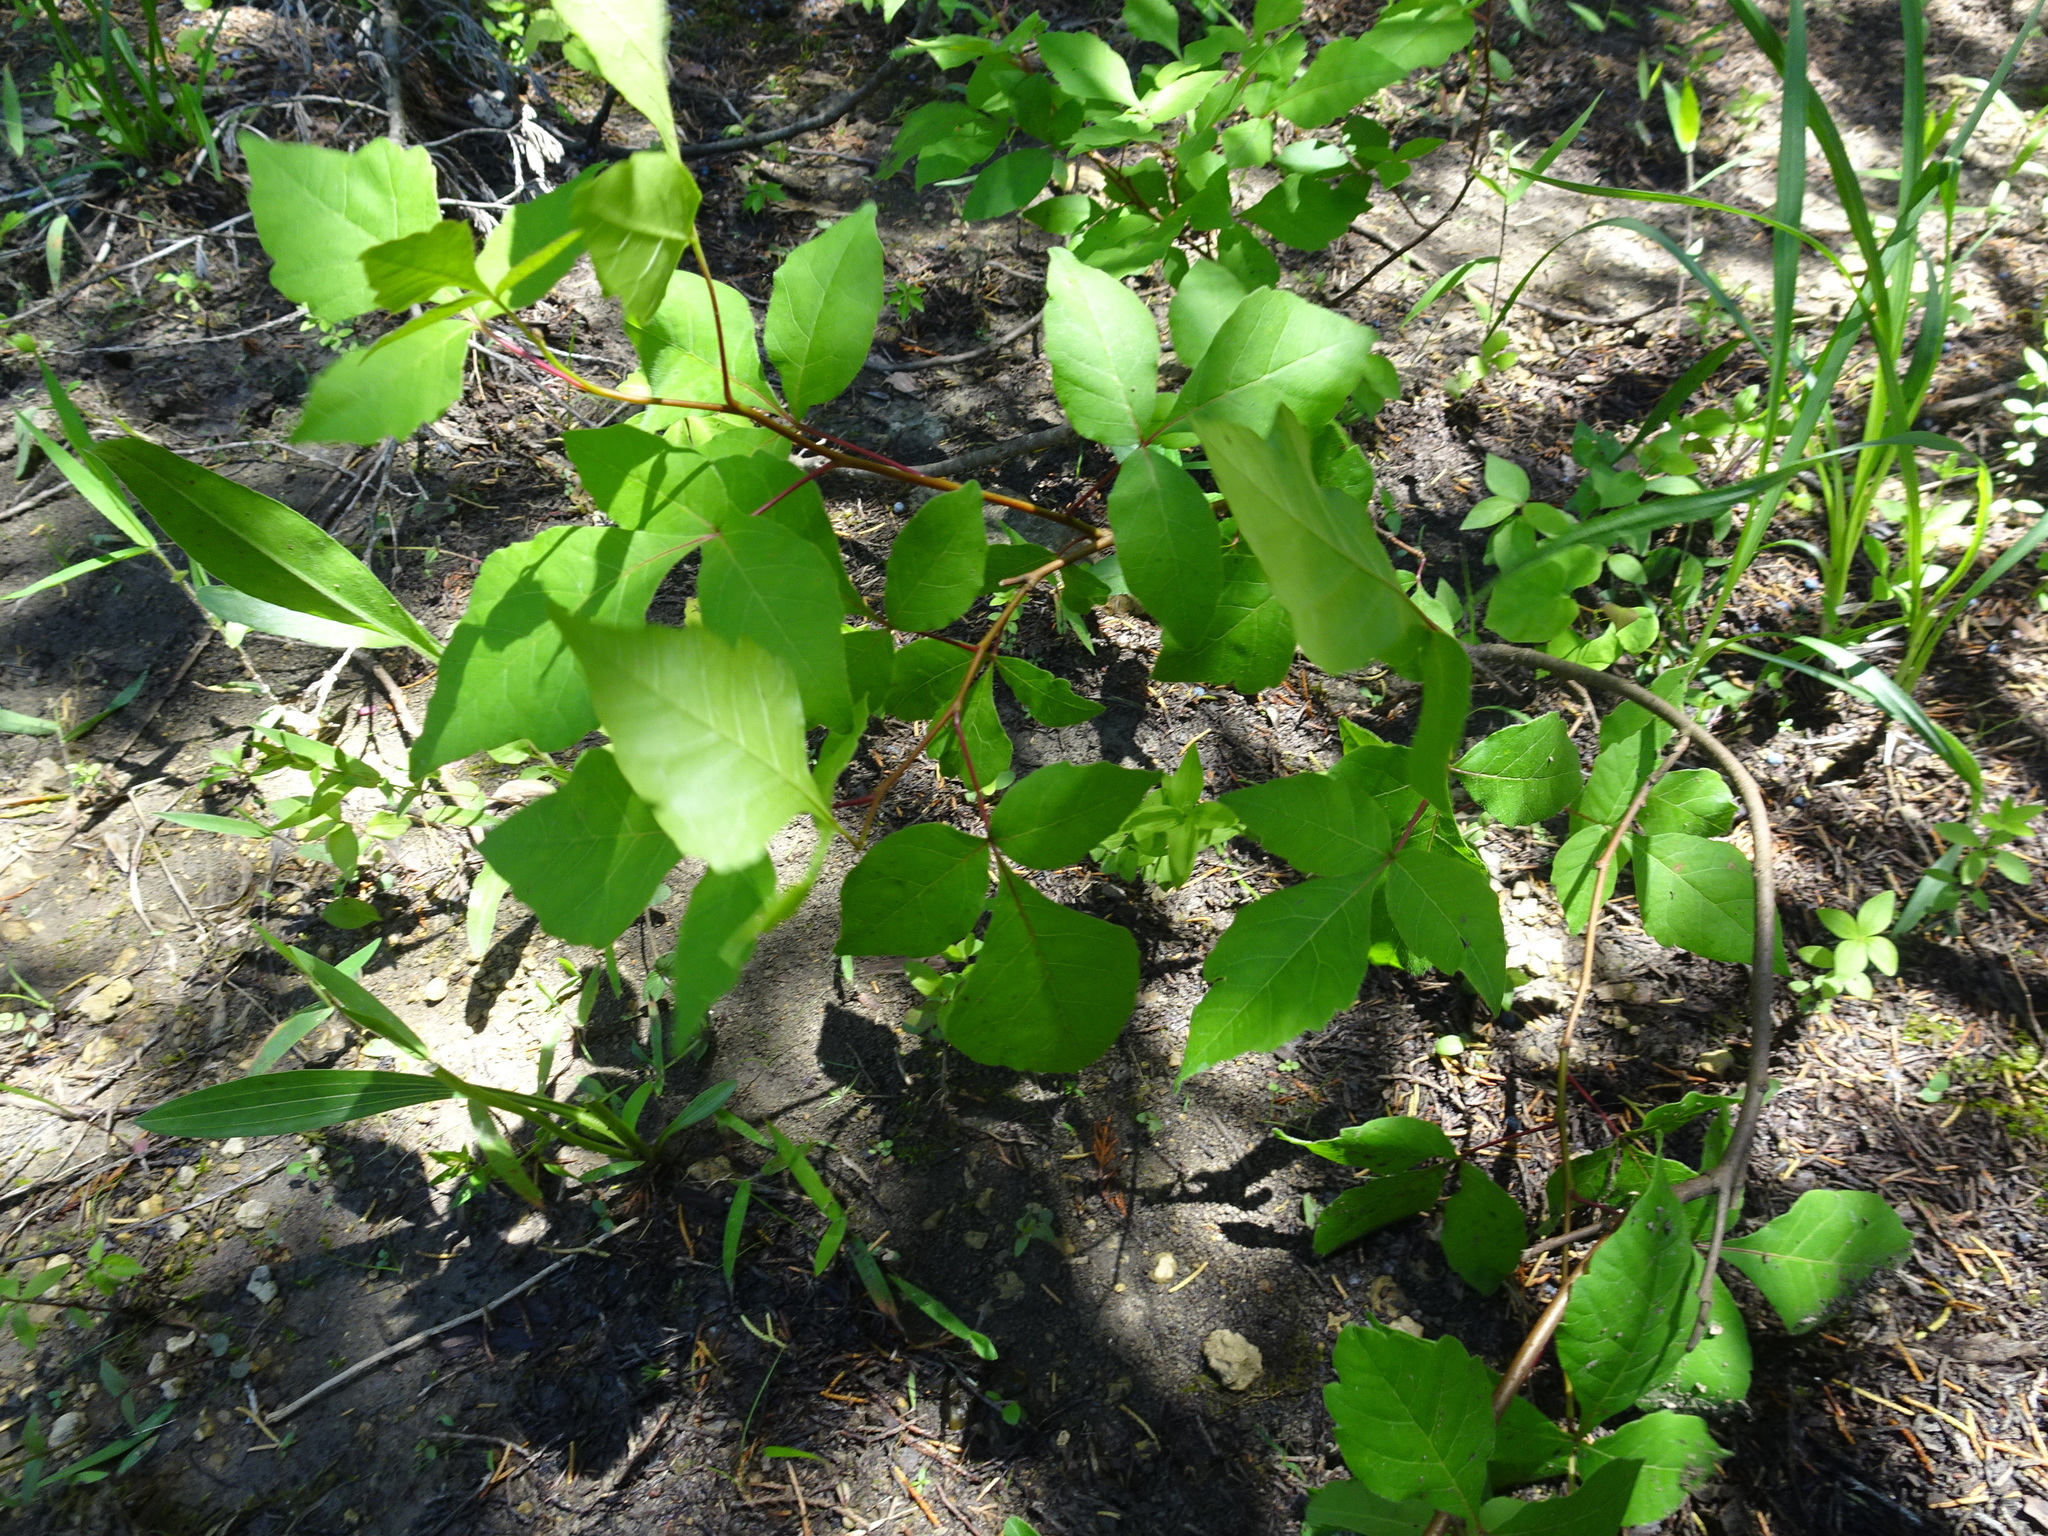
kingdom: Plantae
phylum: Tracheophyta
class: Magnoliopsida
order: Sapindales
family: Anacardiaceae
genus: Toxicodendron
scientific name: Toxicodendron radicans
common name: Poison ivy
